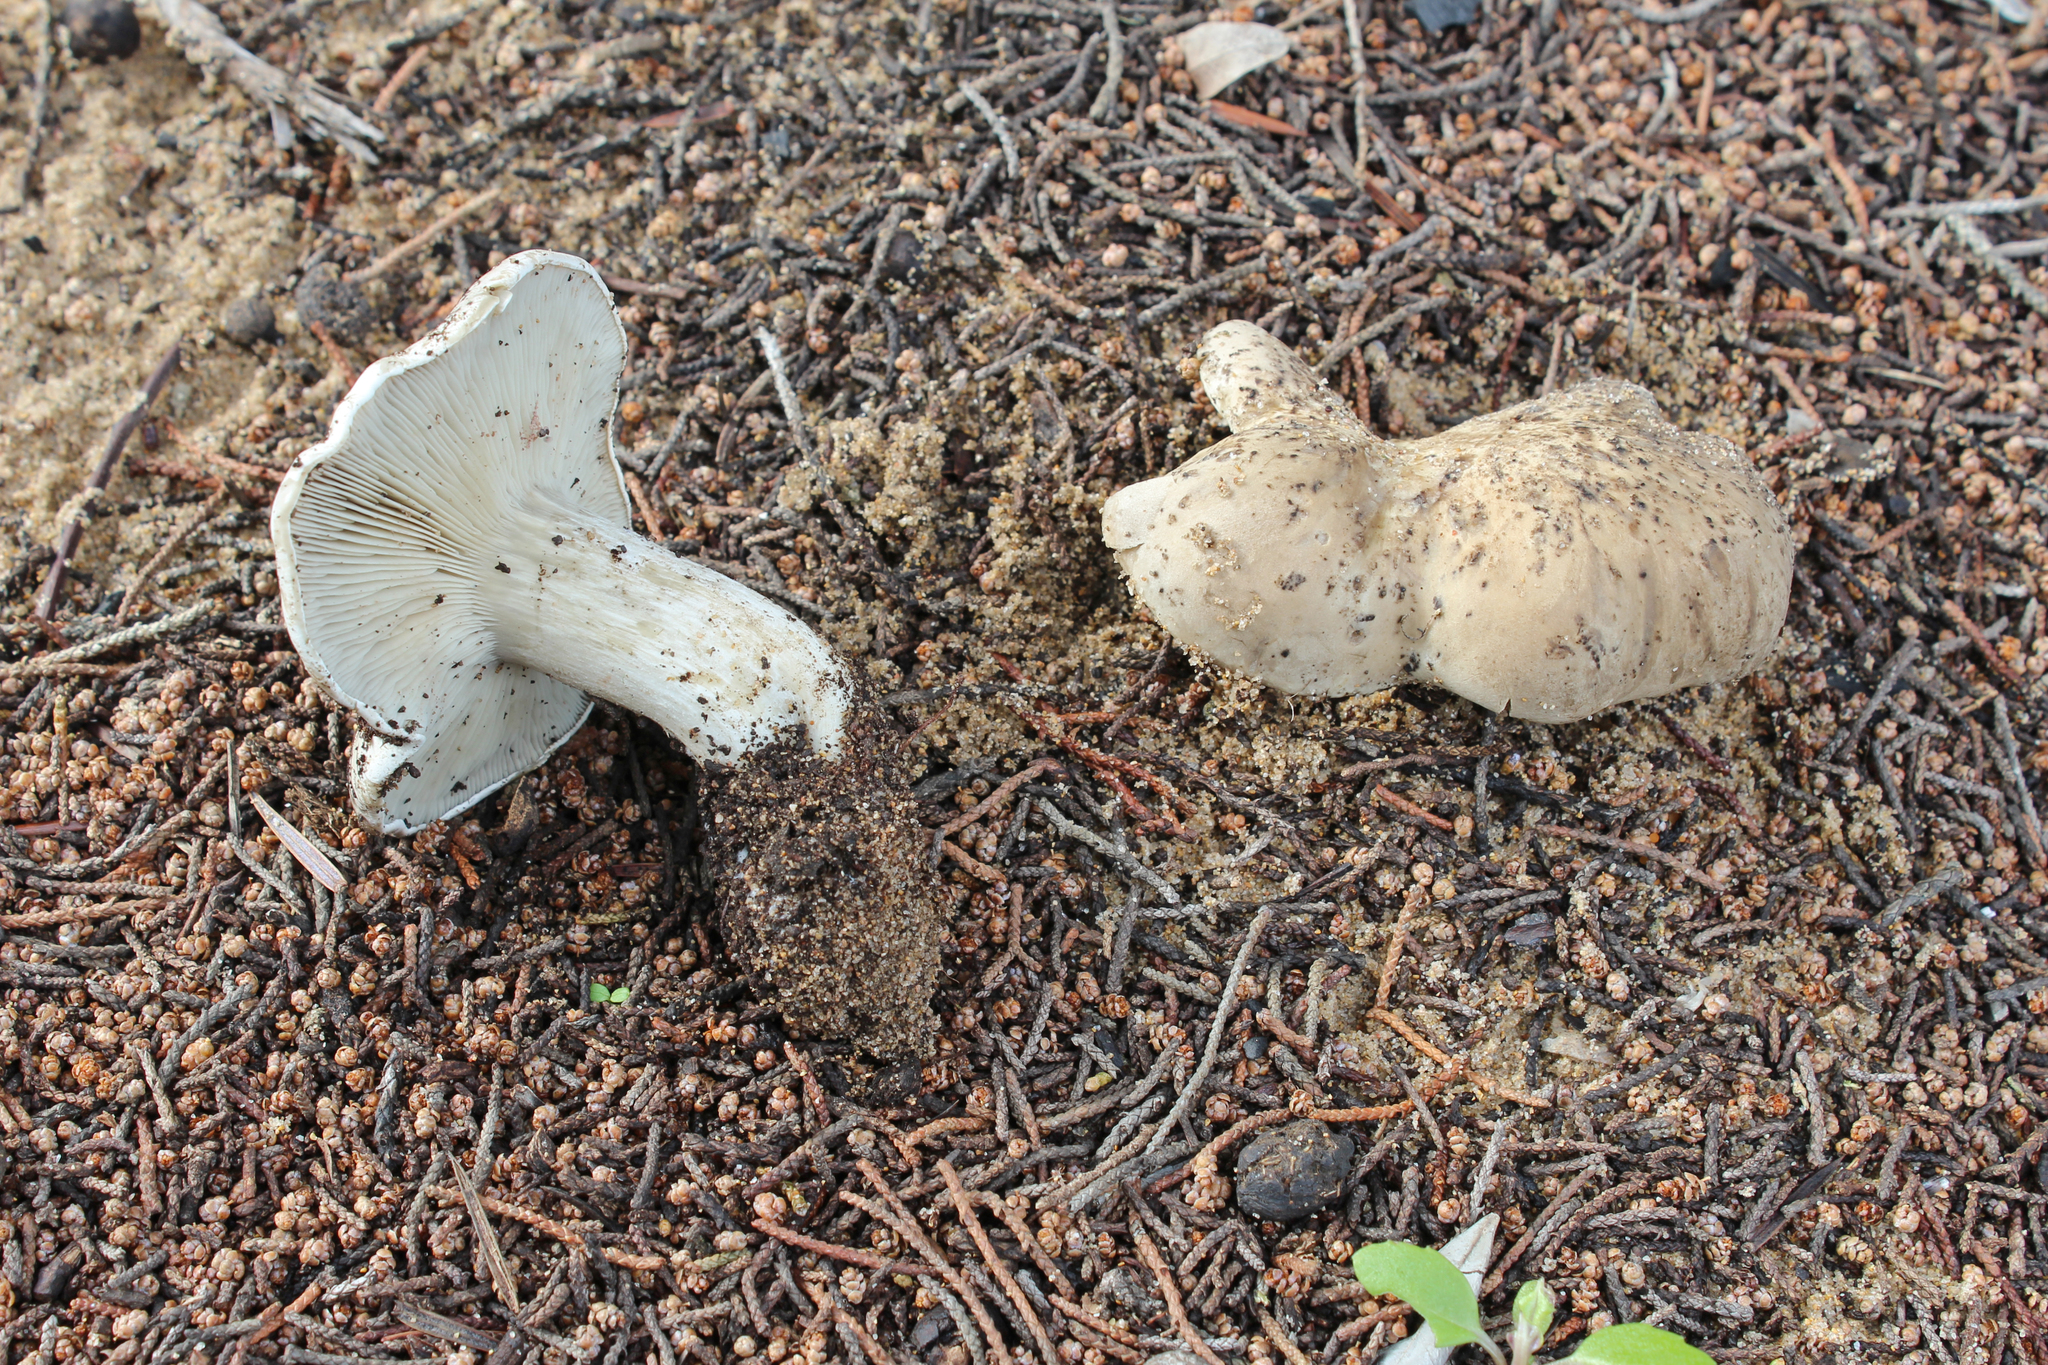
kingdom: Fungi
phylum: Basidiomycota
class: Agaricomycetes
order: Agaricales
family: Entolomataceae
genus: Clitocella
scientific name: Clitocella ammophila
